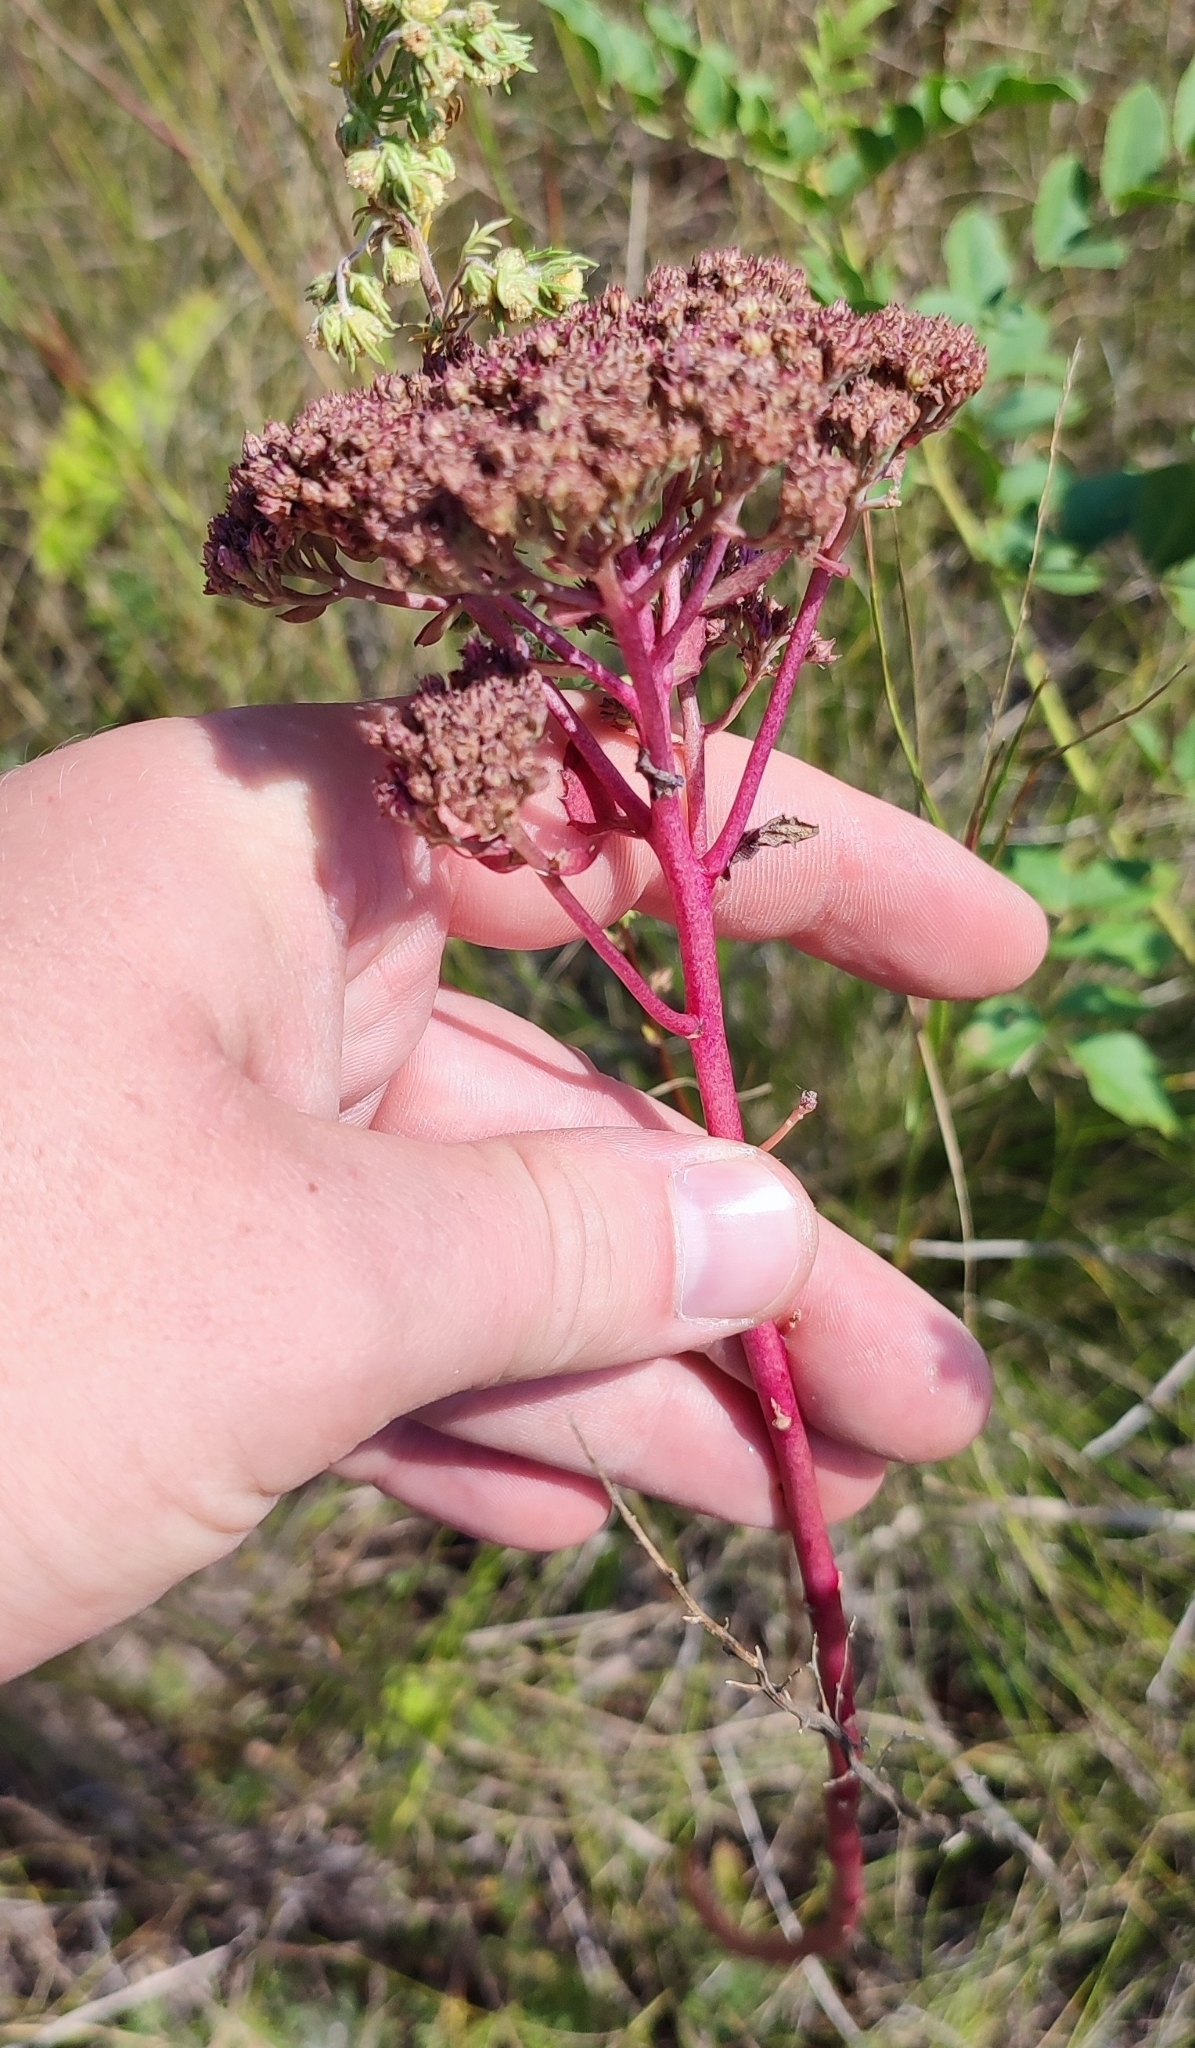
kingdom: Plantae
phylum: Tracheophyta
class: Magnoliopsida
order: Saxifragales
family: Crassulaceae
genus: Hylotelephium
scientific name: Hylotelephium telephium
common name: Live-forever
